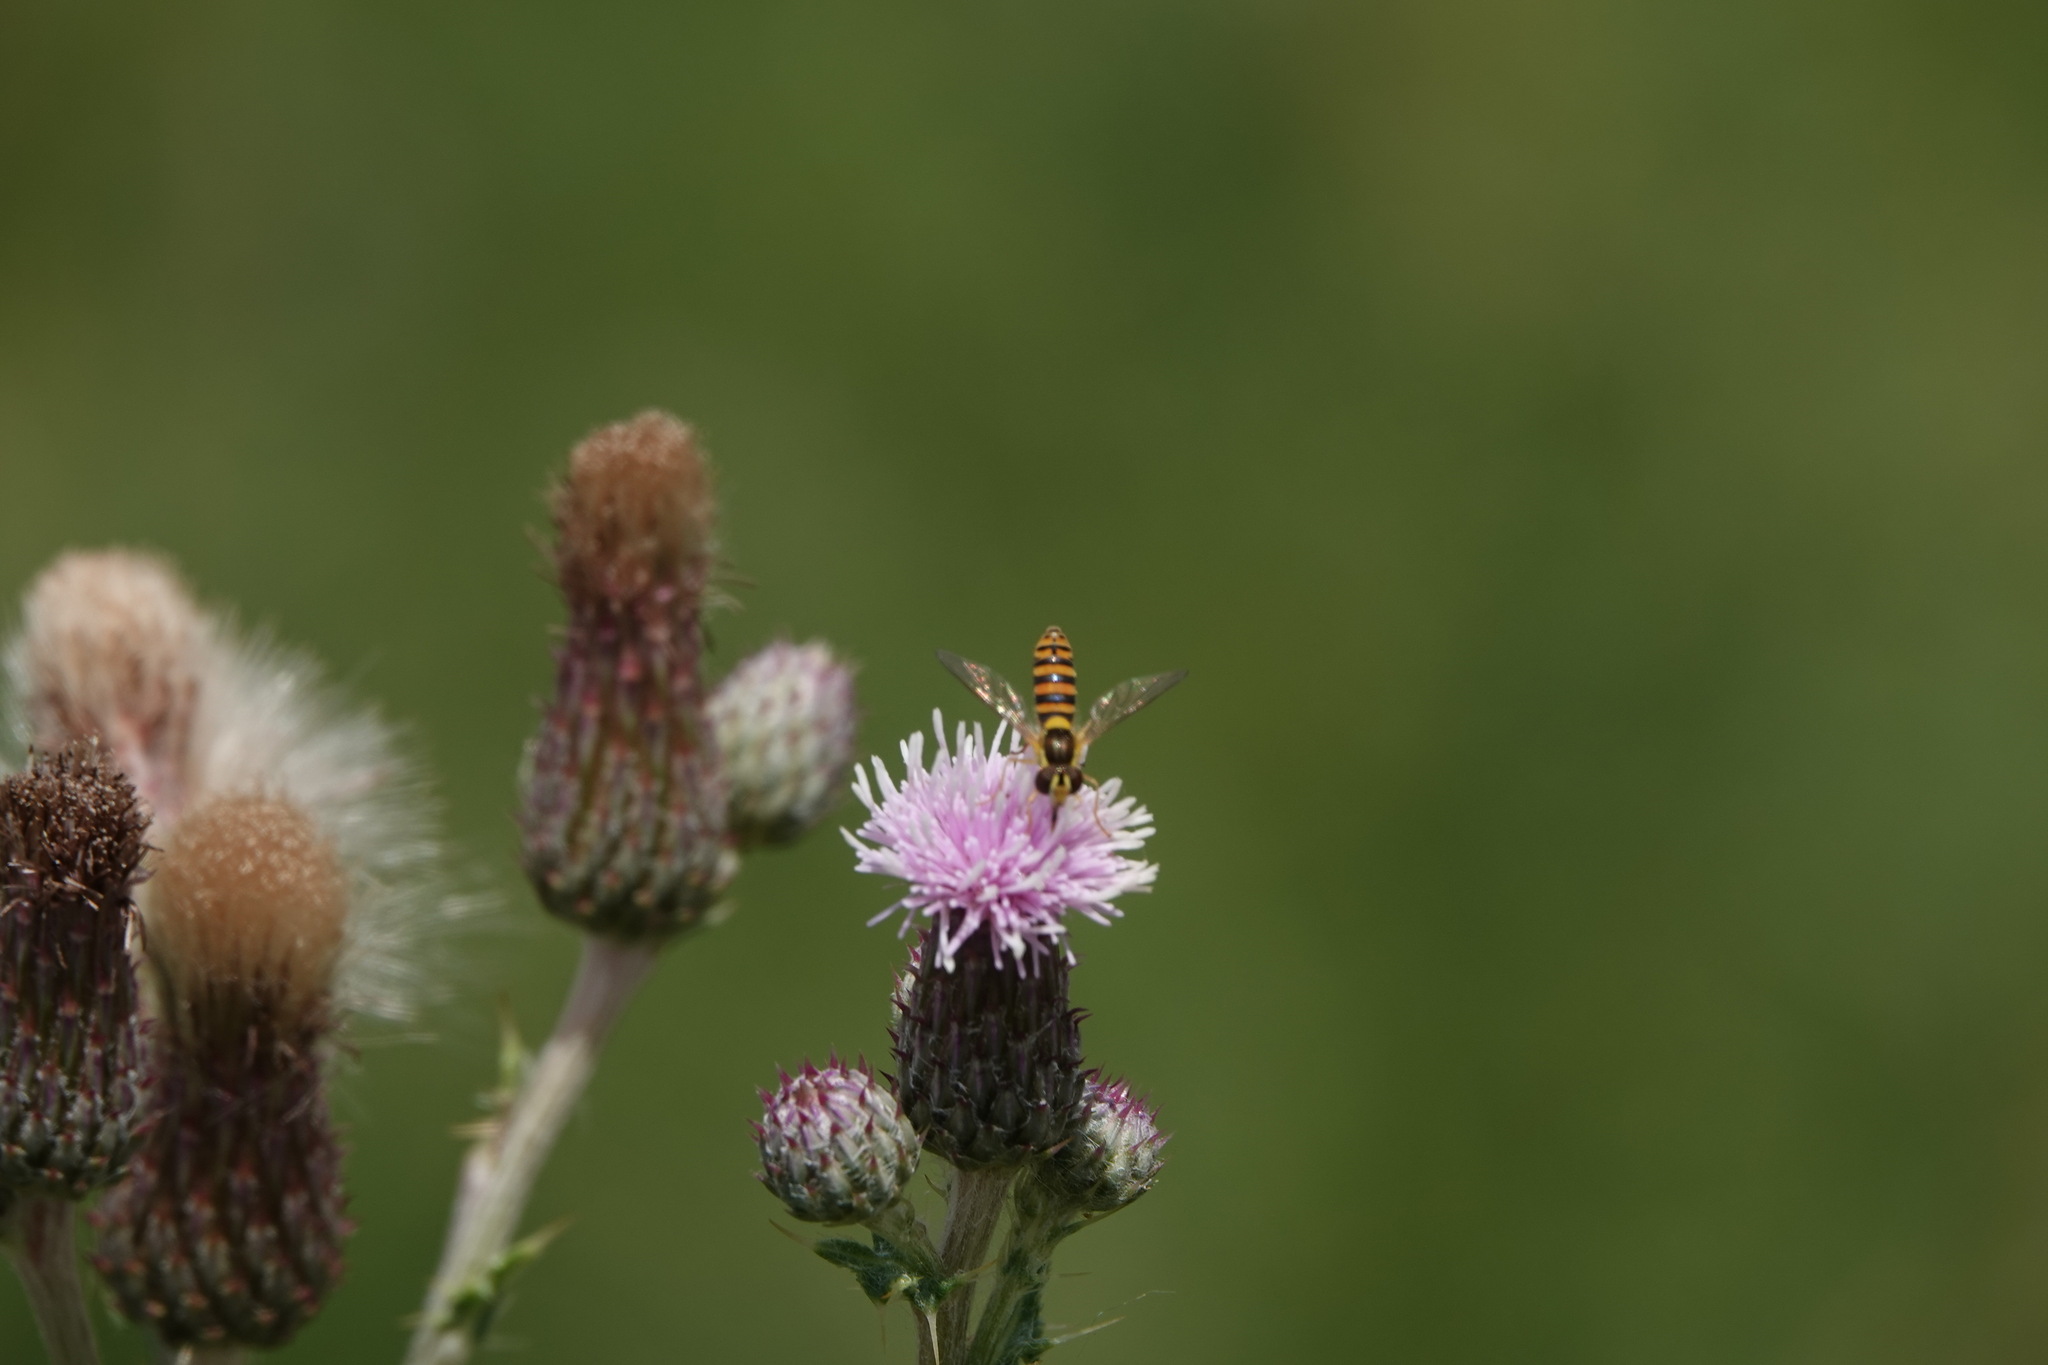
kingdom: Animalia
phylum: Arthropoda
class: Insecta
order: Diptera
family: Syrphidae
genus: Sphaerophoria
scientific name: Sphaerophoria
